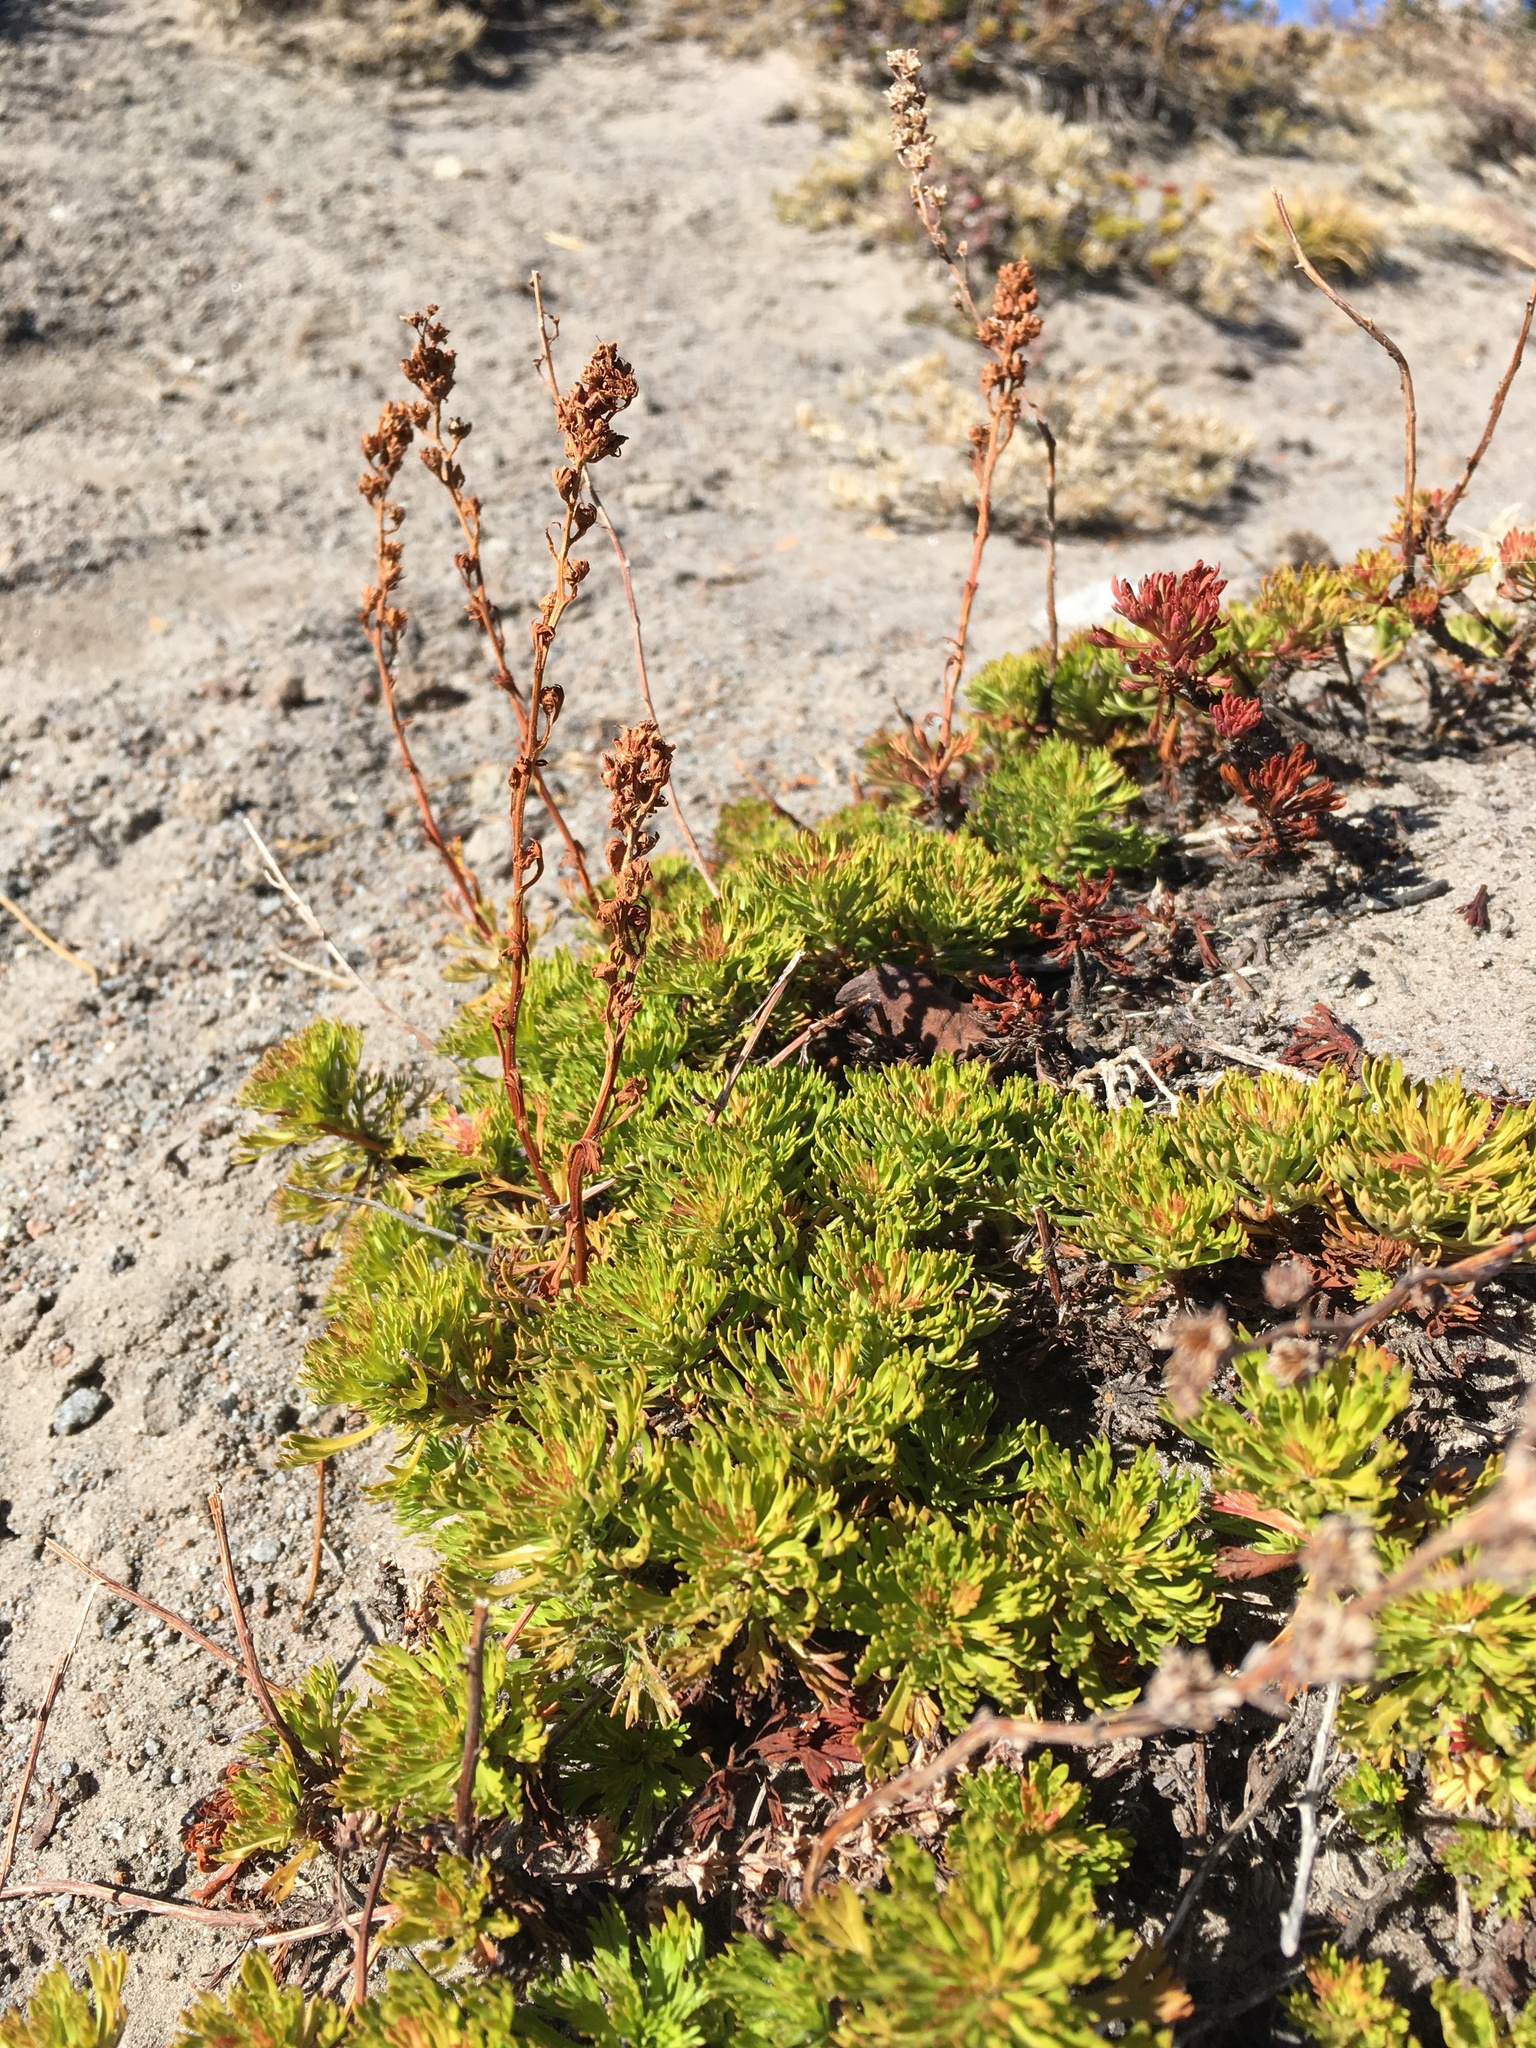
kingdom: Plantae
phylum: Tracheophyta
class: Magnoliopsida
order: Rosales
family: Rosaceae
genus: Luetkea
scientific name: Luetkea pectinata
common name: Partridgefoot
